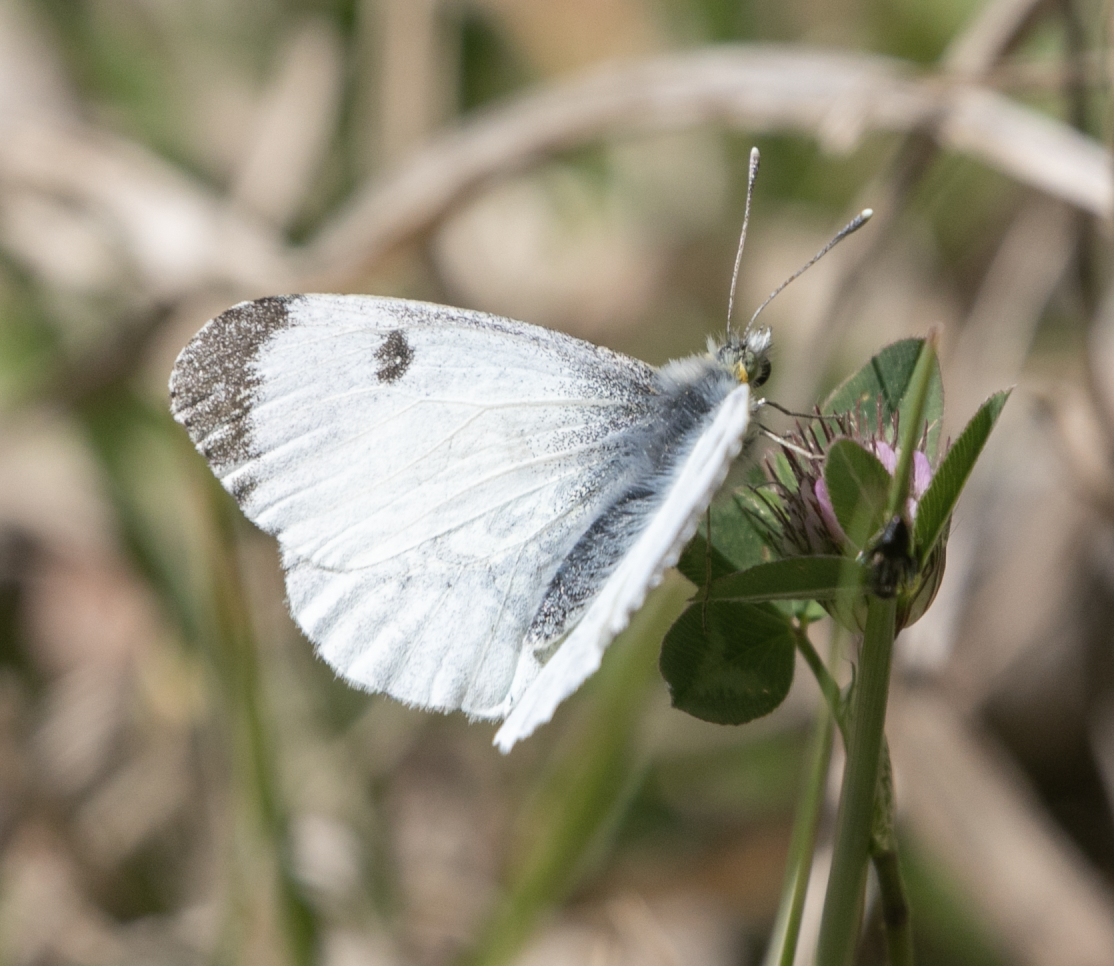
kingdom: Animalia
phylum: Arthropoda
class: Insecta
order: Lepidoptera
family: Pieridae
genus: Anthocharis
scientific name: Anthocharis cardamines
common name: Orange-tip
